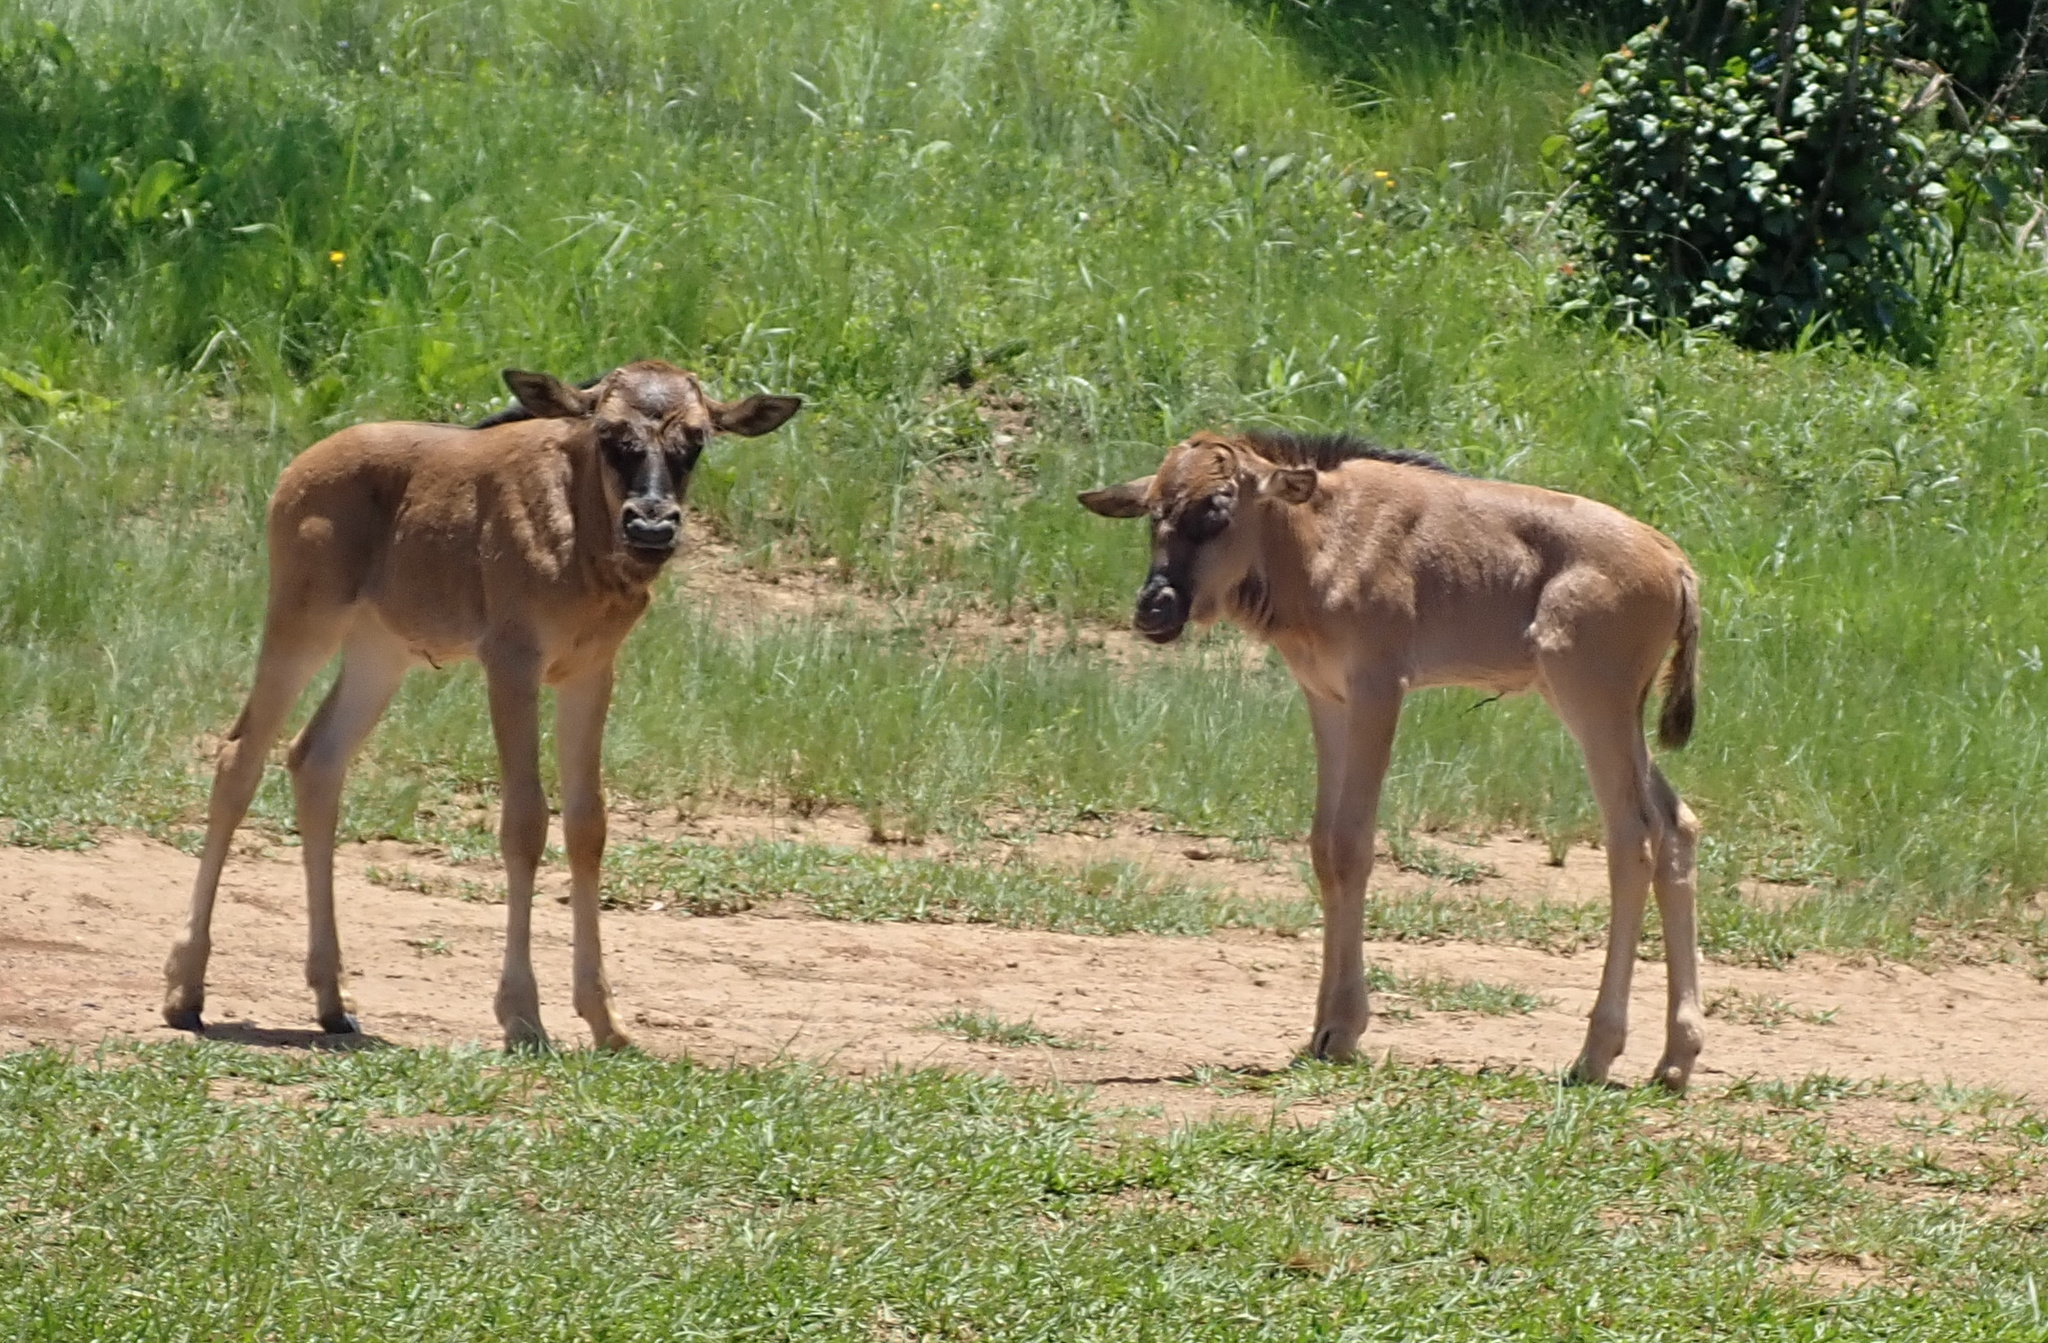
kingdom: Animalia
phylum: Chordata
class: Mammalia
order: Artiodactyla
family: Bovidae
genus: Connochaetes
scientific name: Connochaetes taurinus
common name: Blue wildebeest
